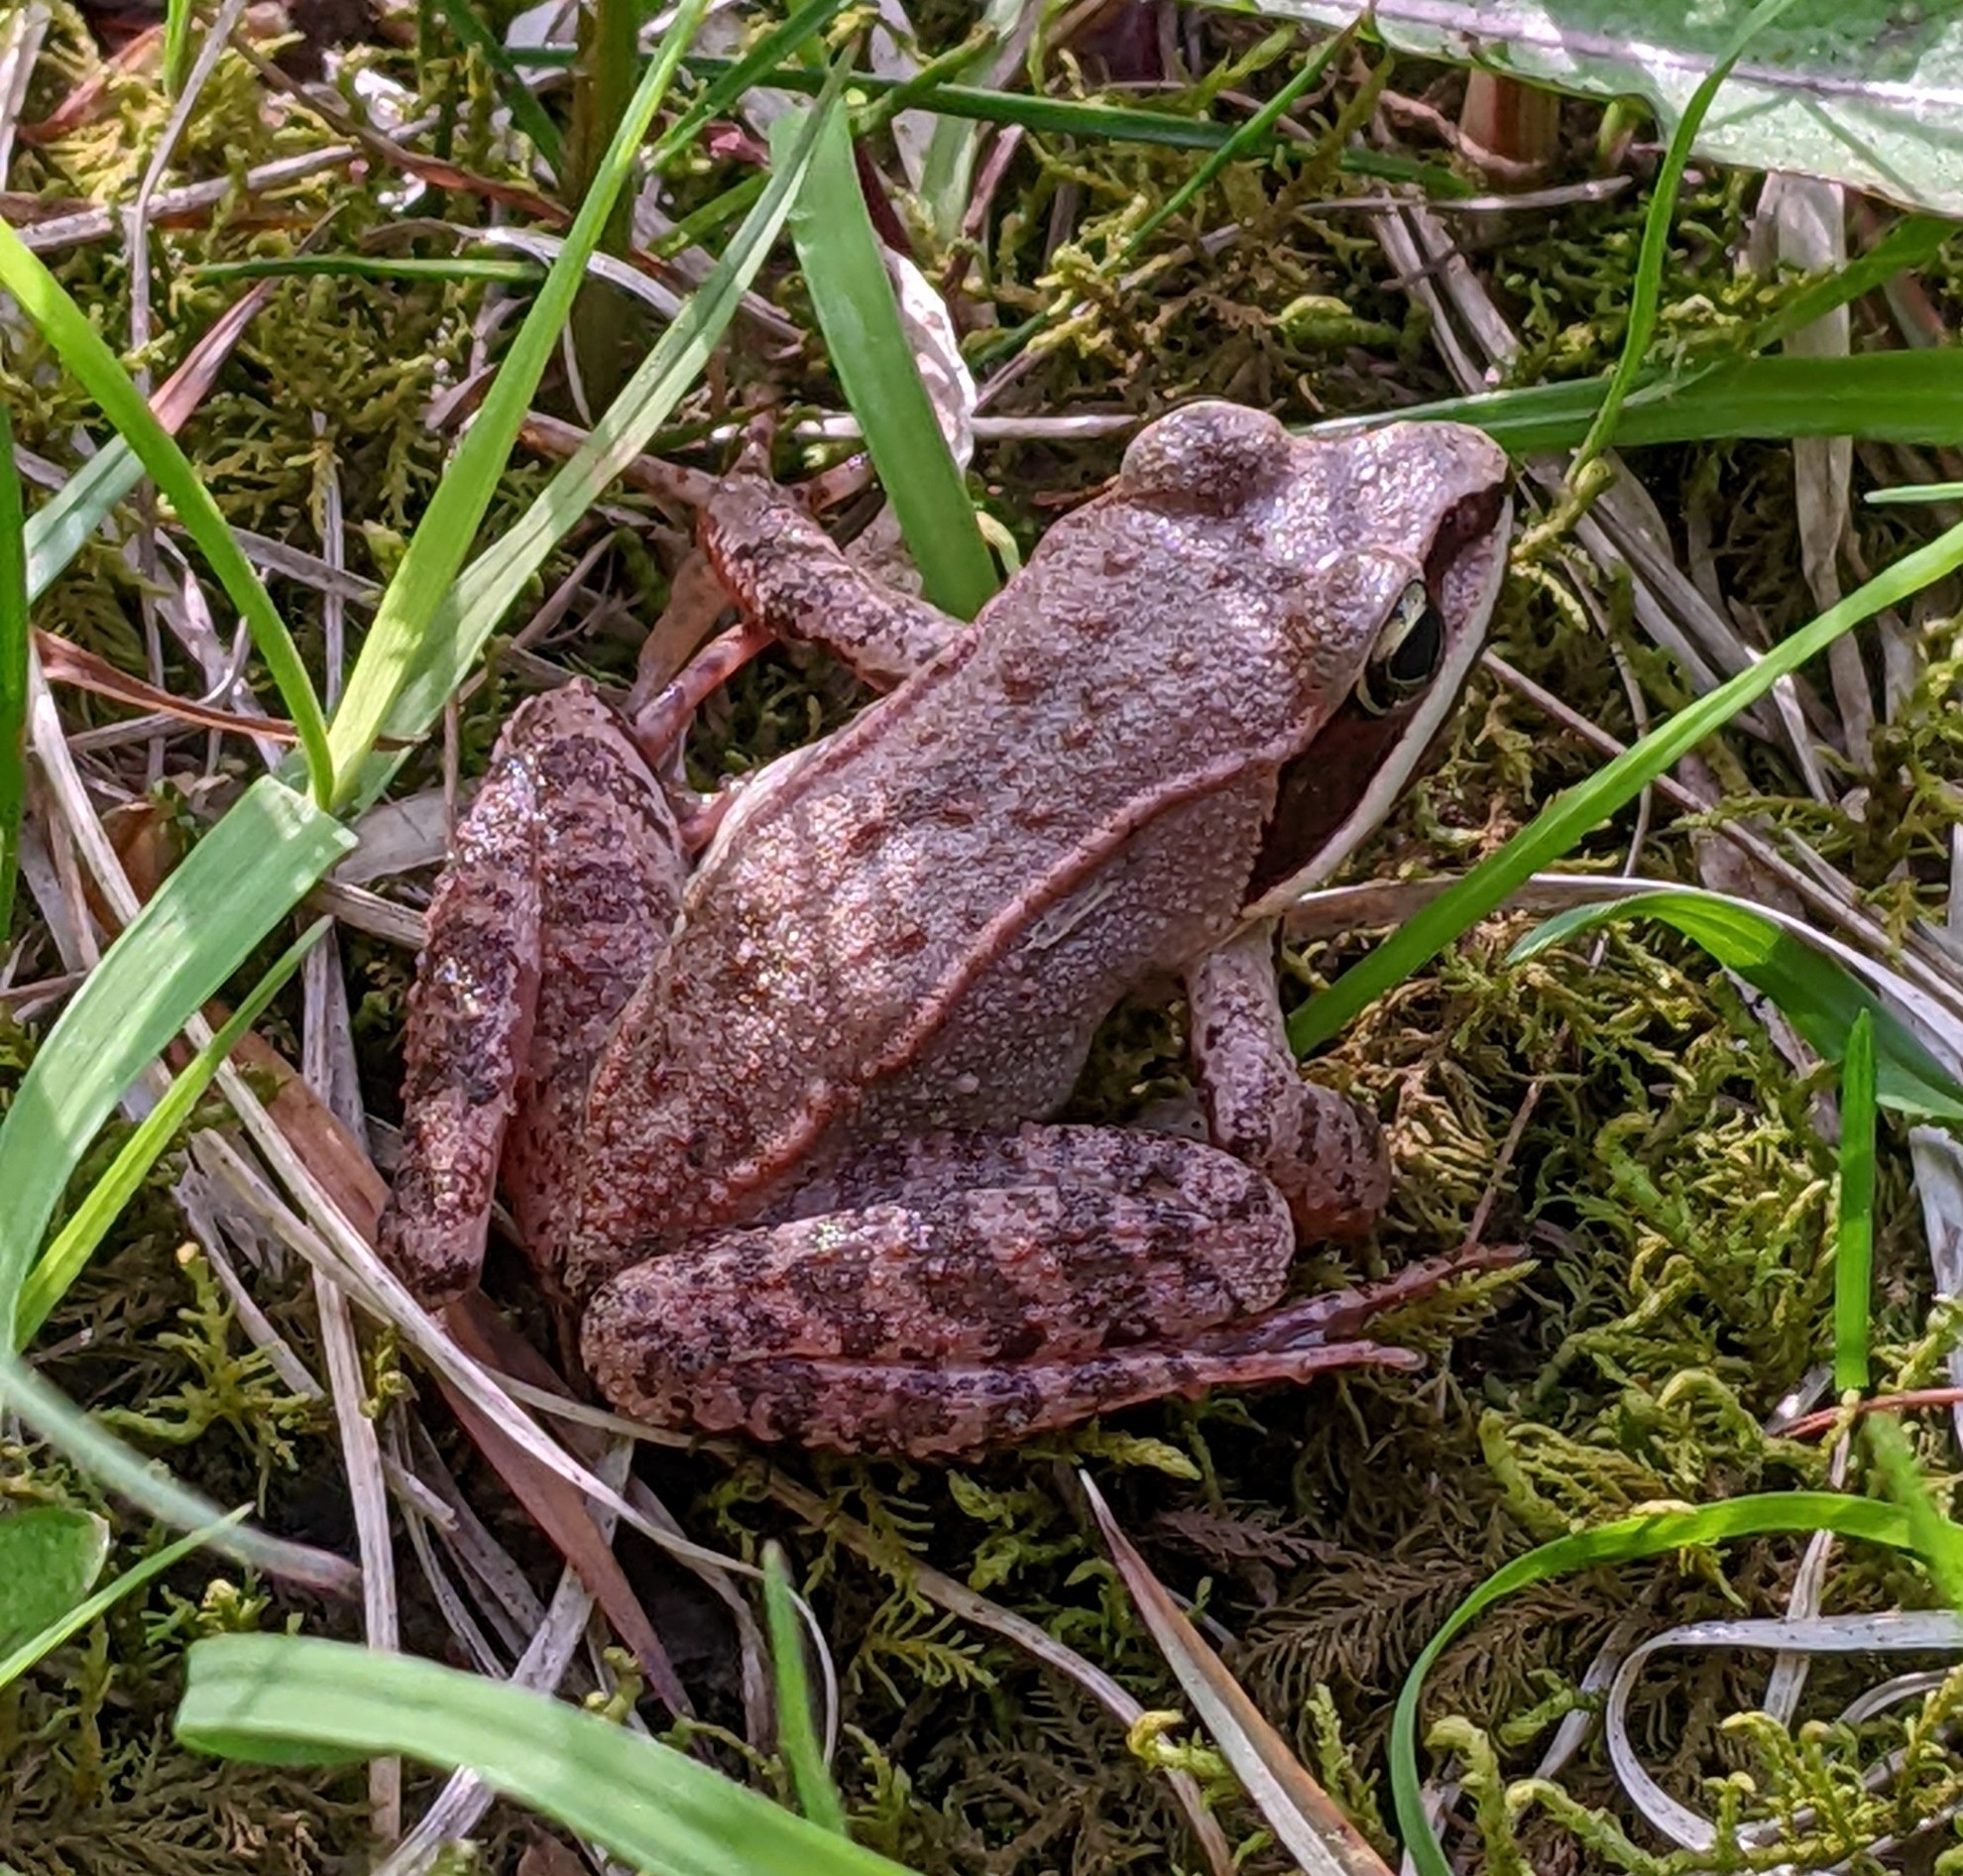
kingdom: Animalia
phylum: Chordata
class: Amphibia
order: Anura
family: Ranidae
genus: Lithobates
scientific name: Lithobates sylvaticus
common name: Wood frog
